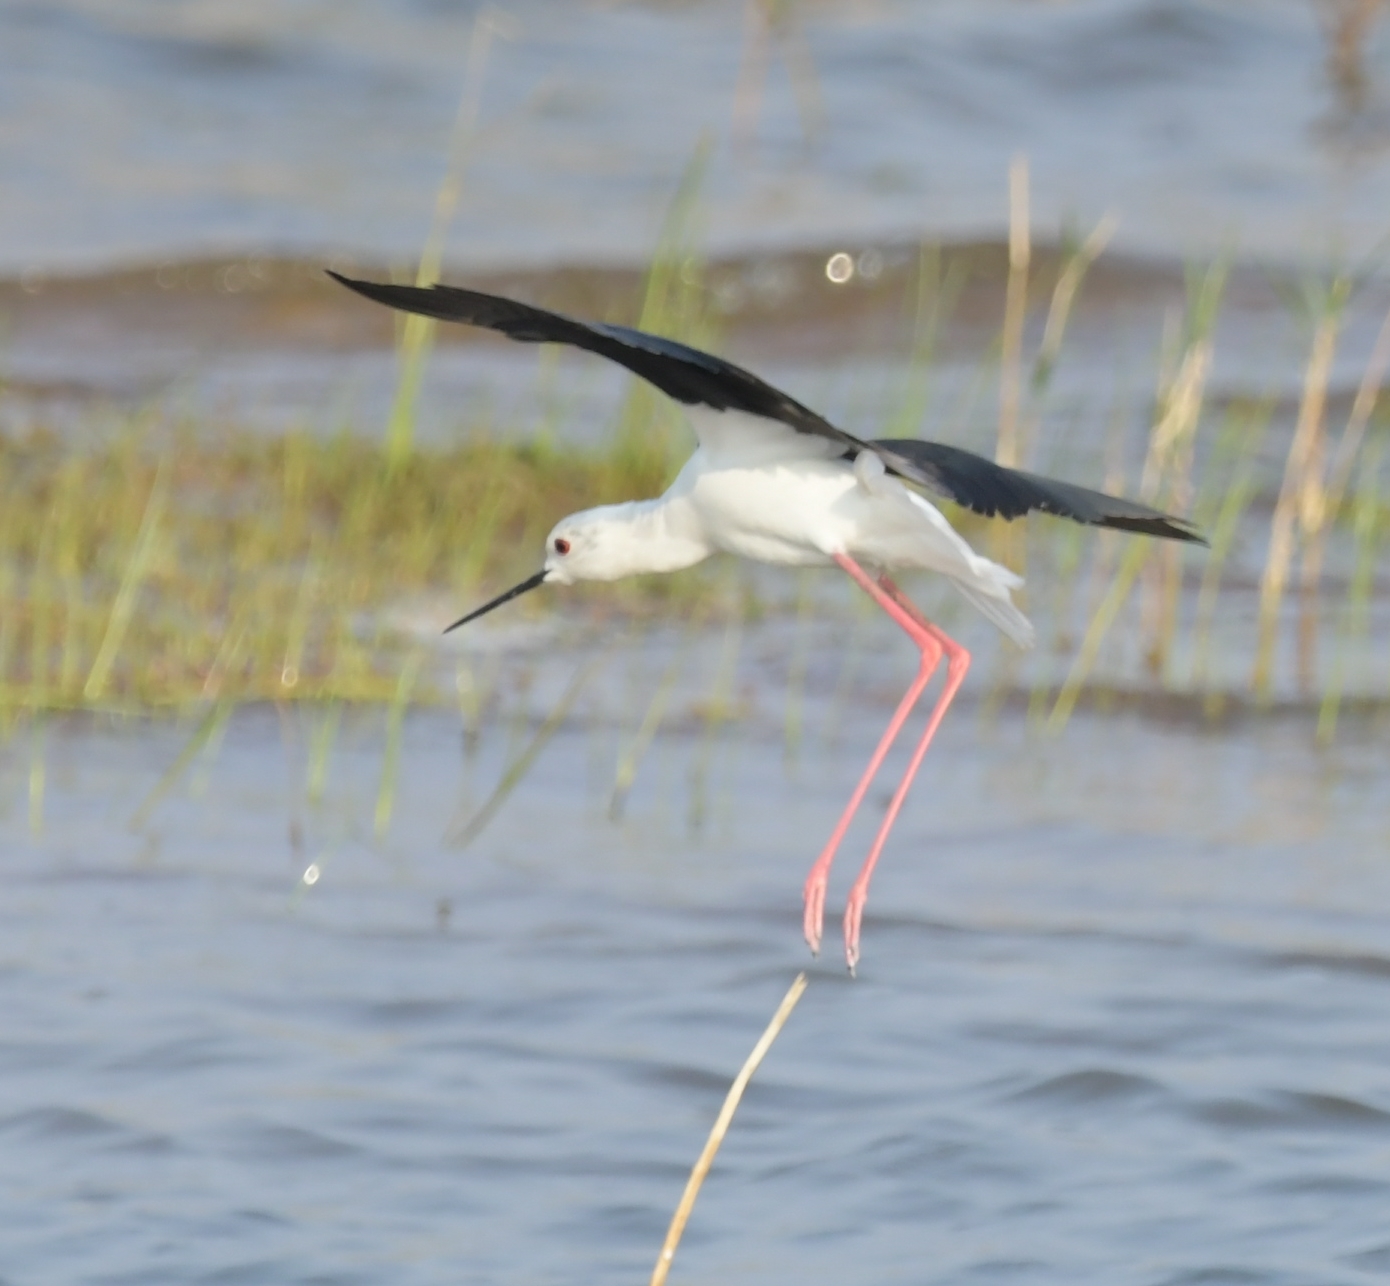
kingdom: Animalia
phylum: Chordata
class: Aves
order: Charadriiformes
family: Recurvirostridae
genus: Himantopus
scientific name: Himantopus himantopus
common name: Black-winged stilt
